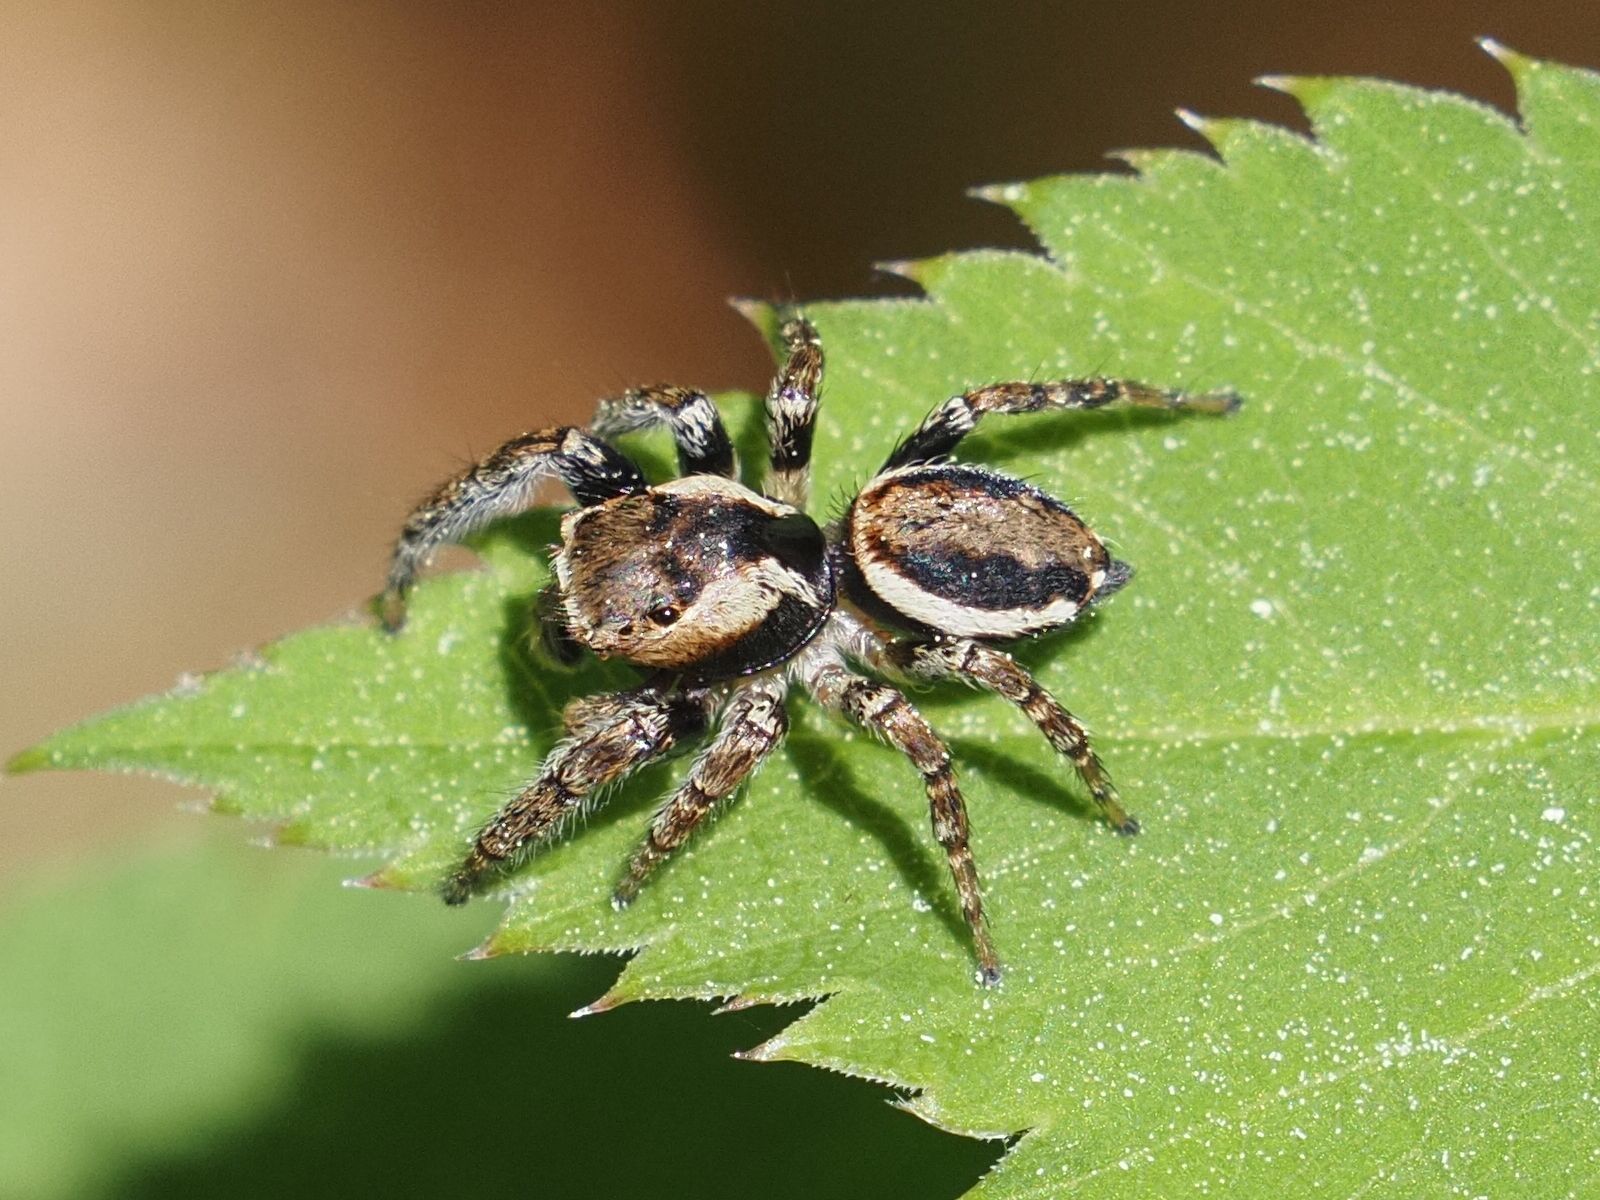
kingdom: Animalia
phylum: Arthropoda
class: Arachnida
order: Araneae
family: Salticidae
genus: Evarcha
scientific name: Evarcha falcata
